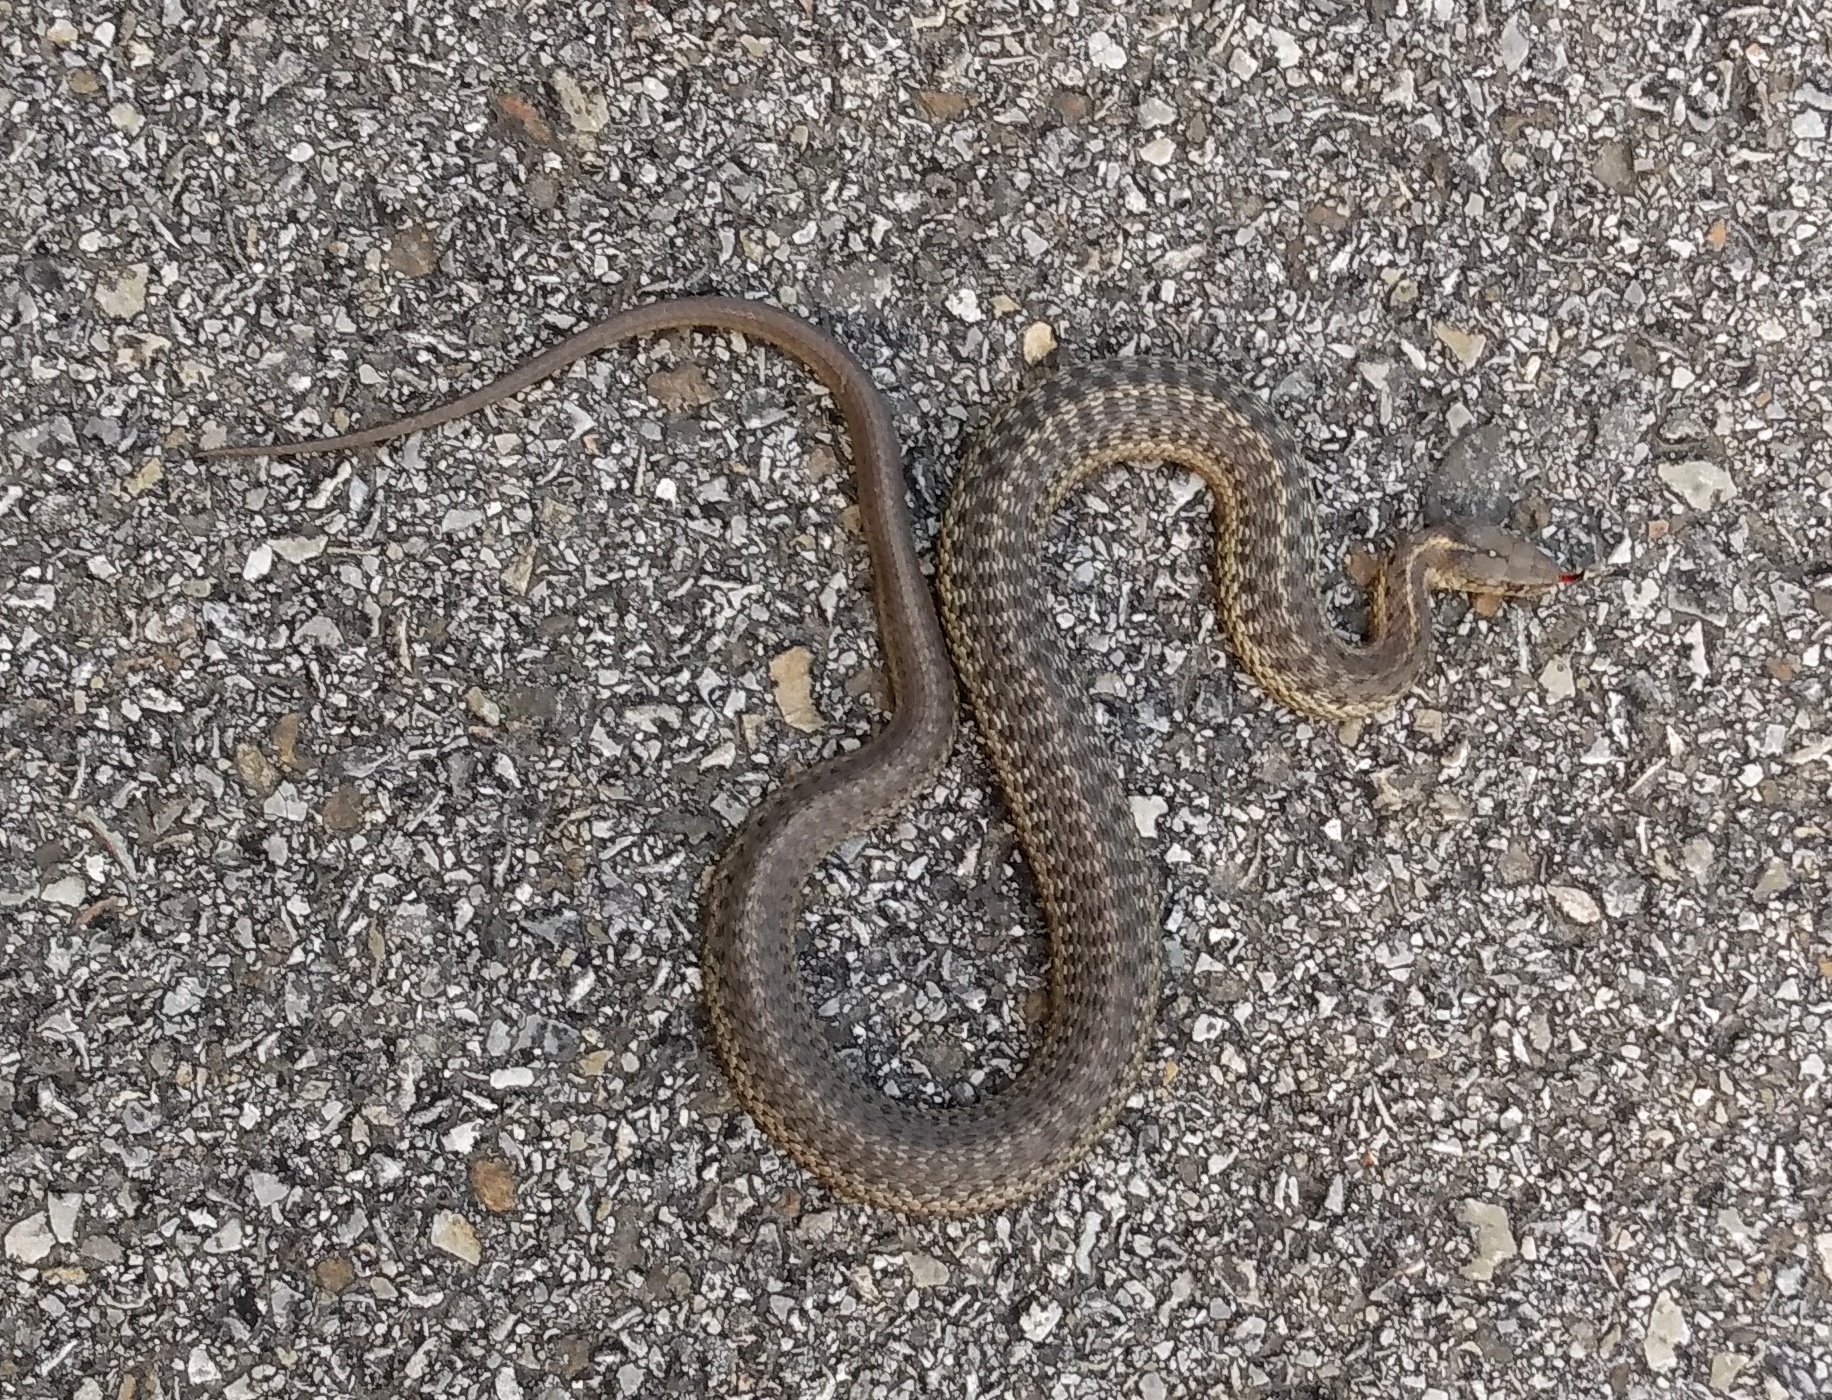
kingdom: Animalia
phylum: Chordata
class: Squamata
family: Colubridae
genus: Thamnophis
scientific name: Thamnophis elegans
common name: Western terrestrial garter snake
